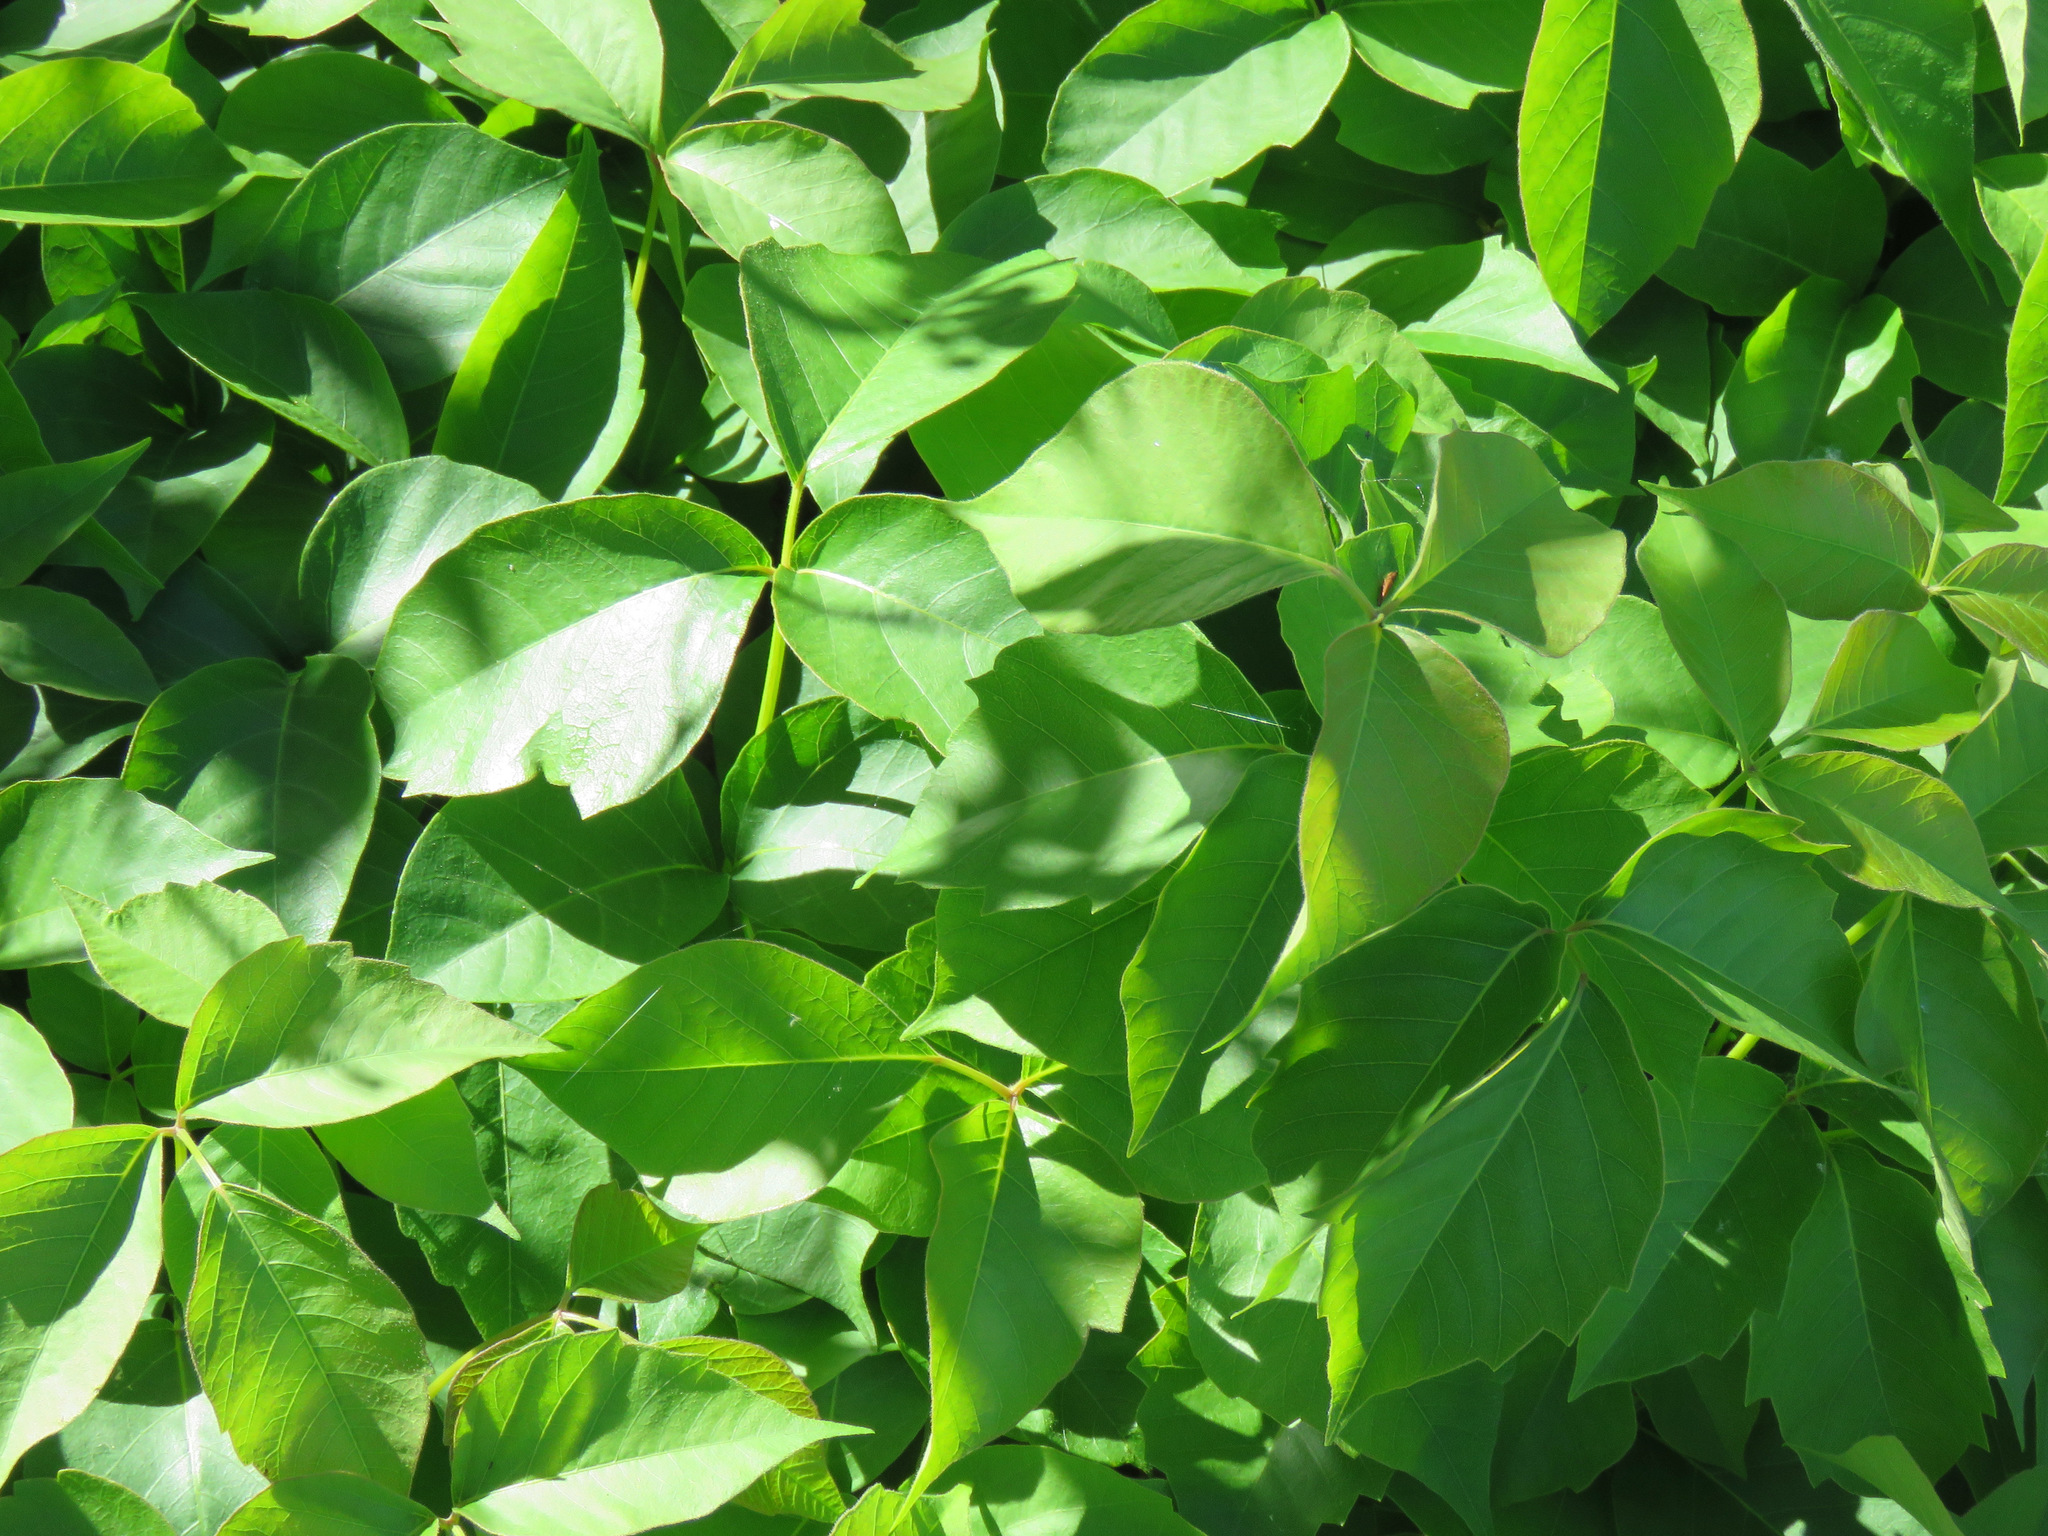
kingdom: Plantae
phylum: Tracheophyta
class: Magnoliopsida
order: Sapindales
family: Anacardiaceae
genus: Toxicodendron
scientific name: Toxicodendron rydbergii
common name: Rydberg's poison-ivy
